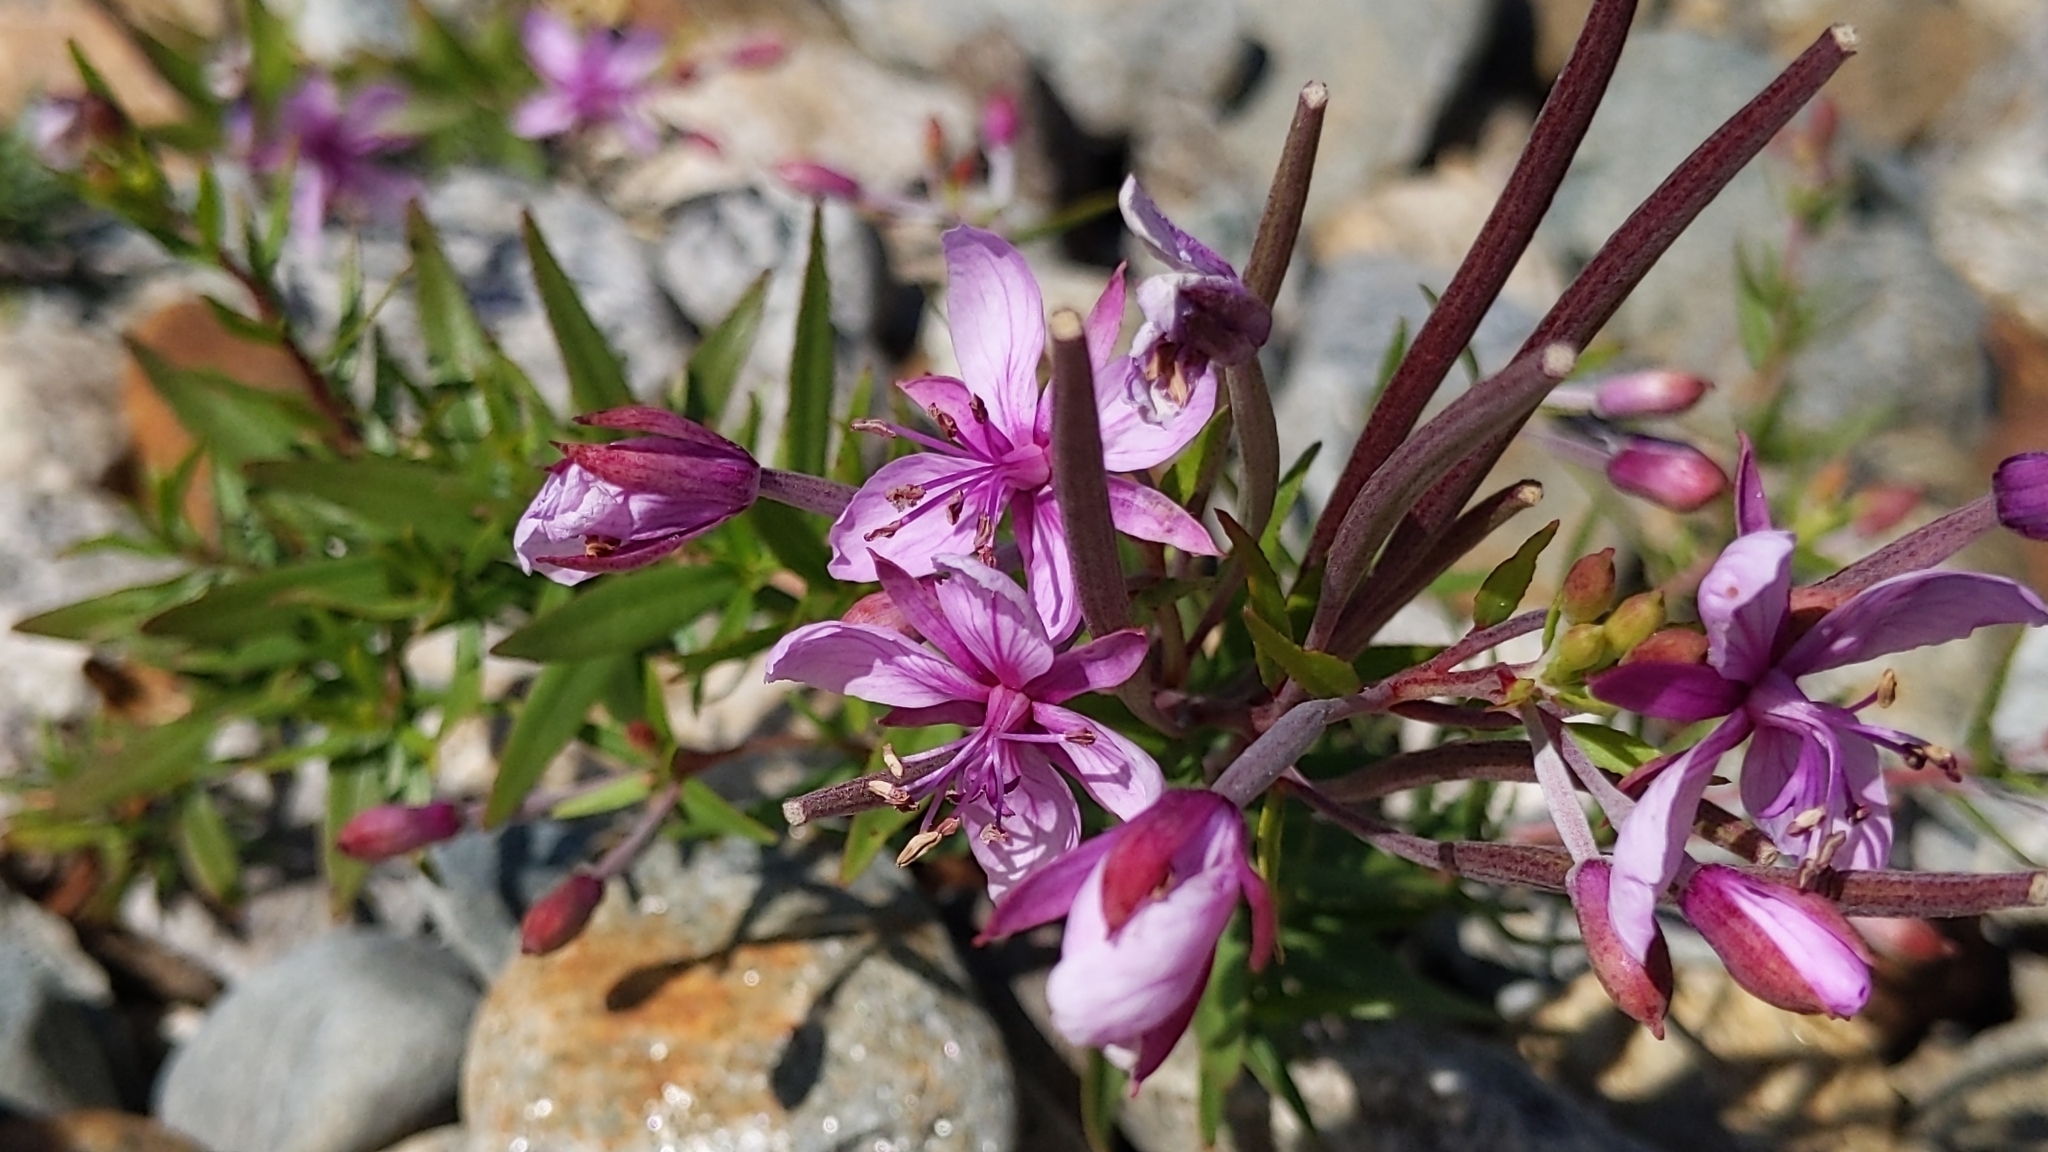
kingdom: Plantae
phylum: Tracheophyta
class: Magnoliopsida
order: Myrtales
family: Onagraceae
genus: Chamaenerion
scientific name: Chamaenerion fleischeri
